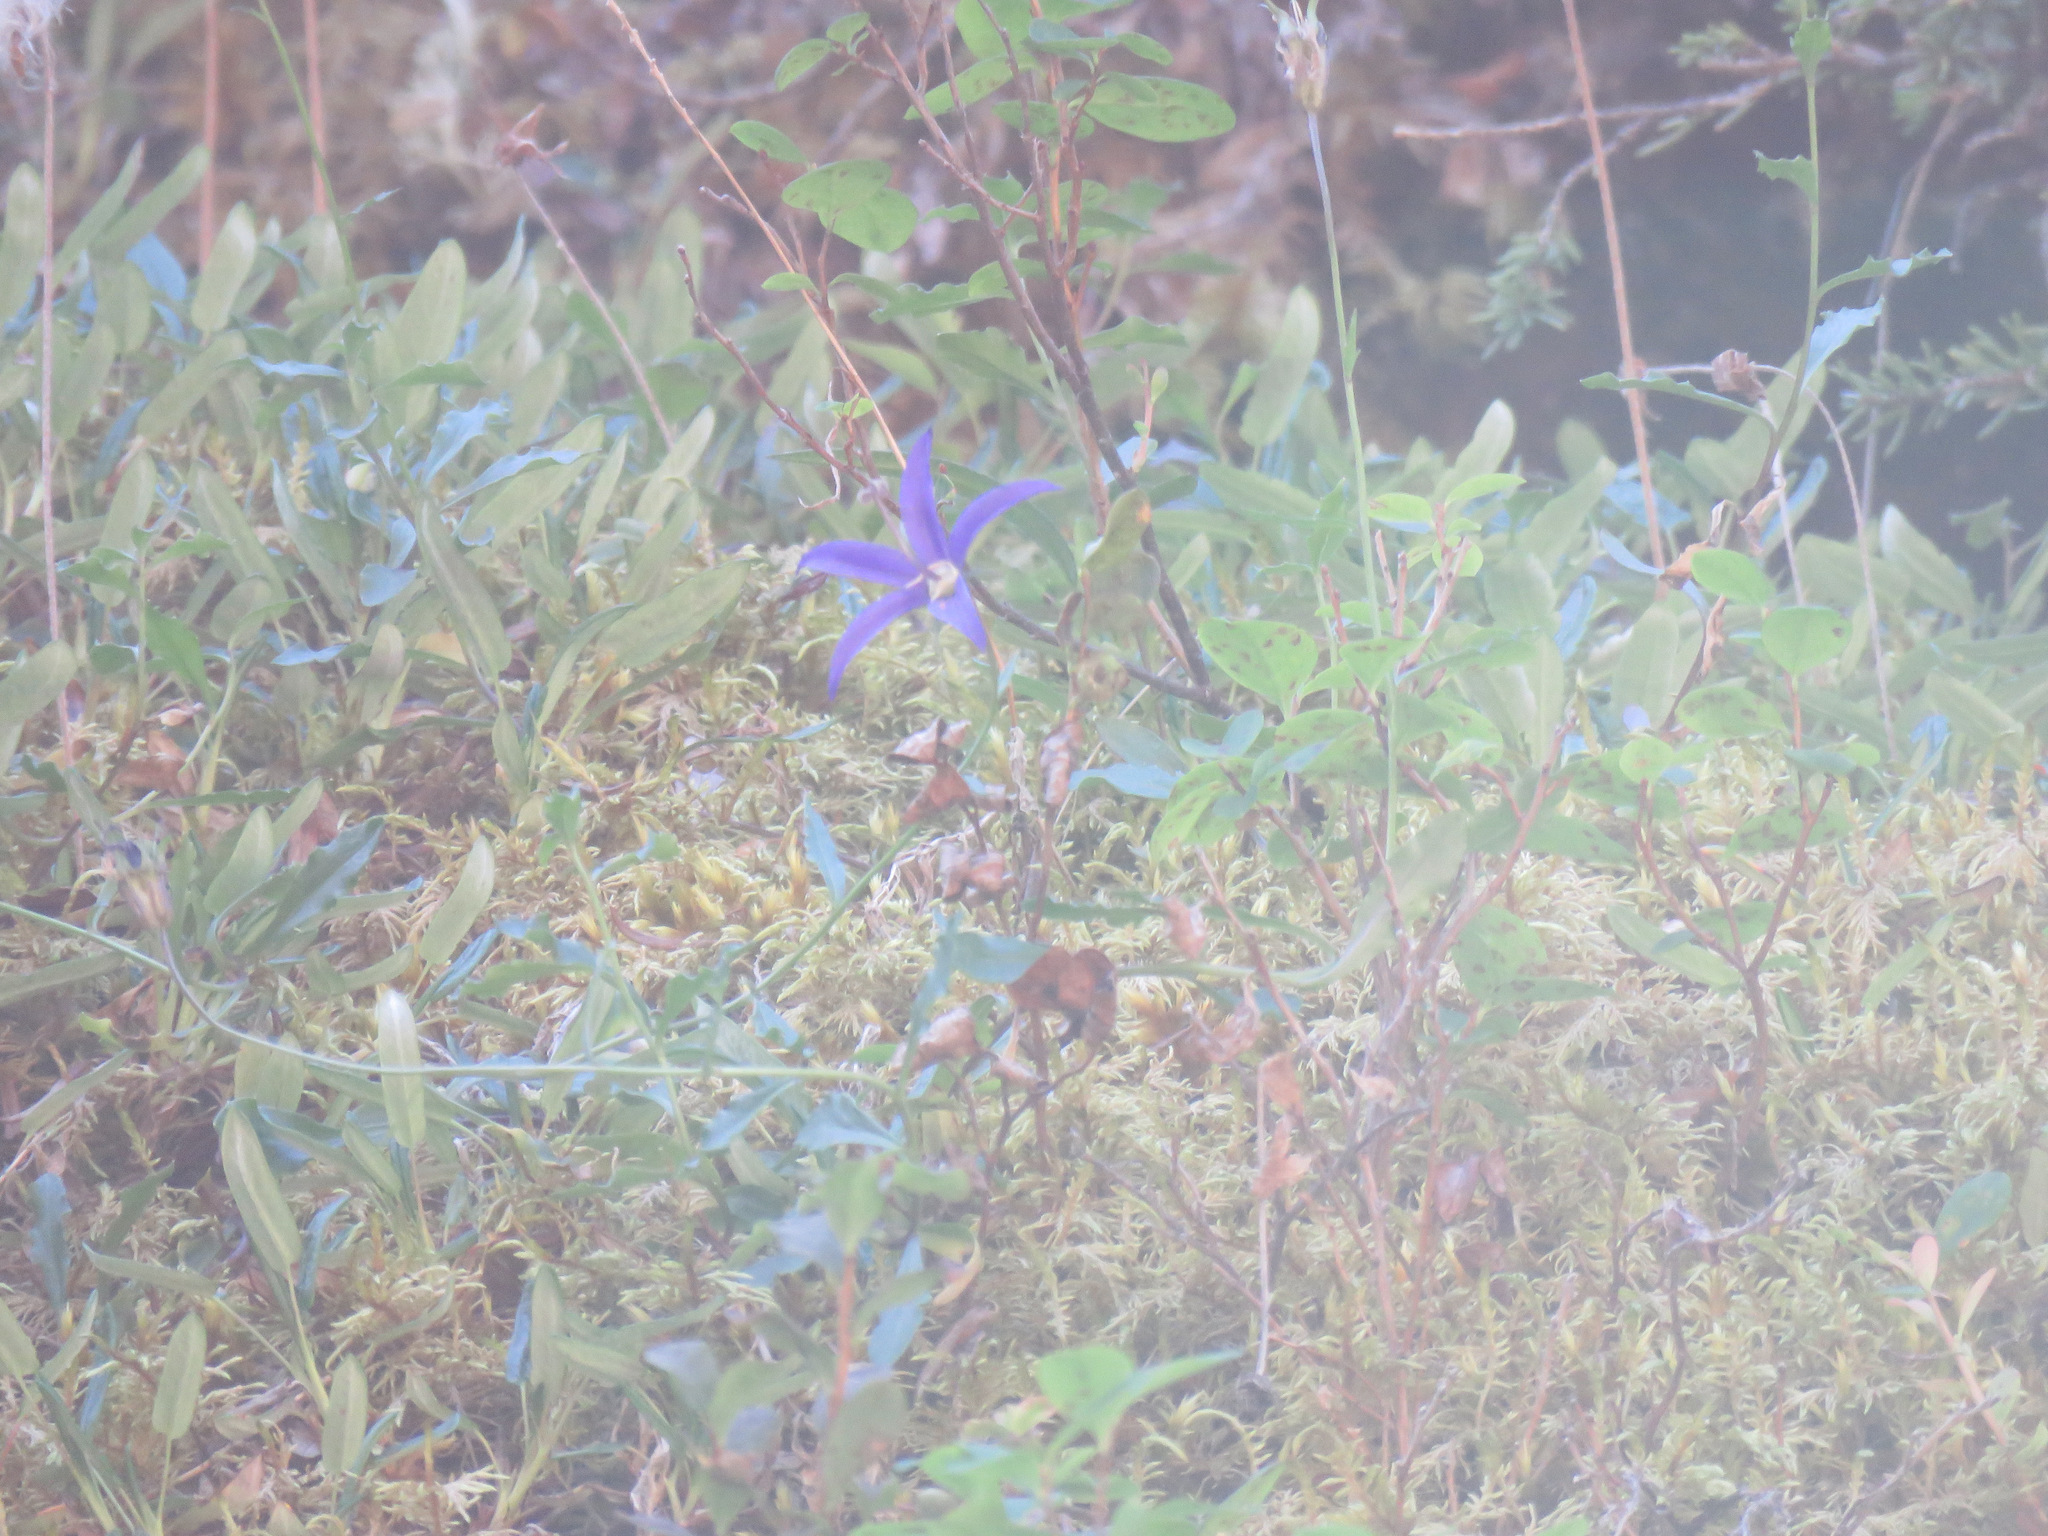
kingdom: Plantae
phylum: Tracheophyta
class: Magnoliopsida
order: Asterales
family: Campanulaceae
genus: Campanula
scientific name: Campanula aurita
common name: Yukon bellflower
